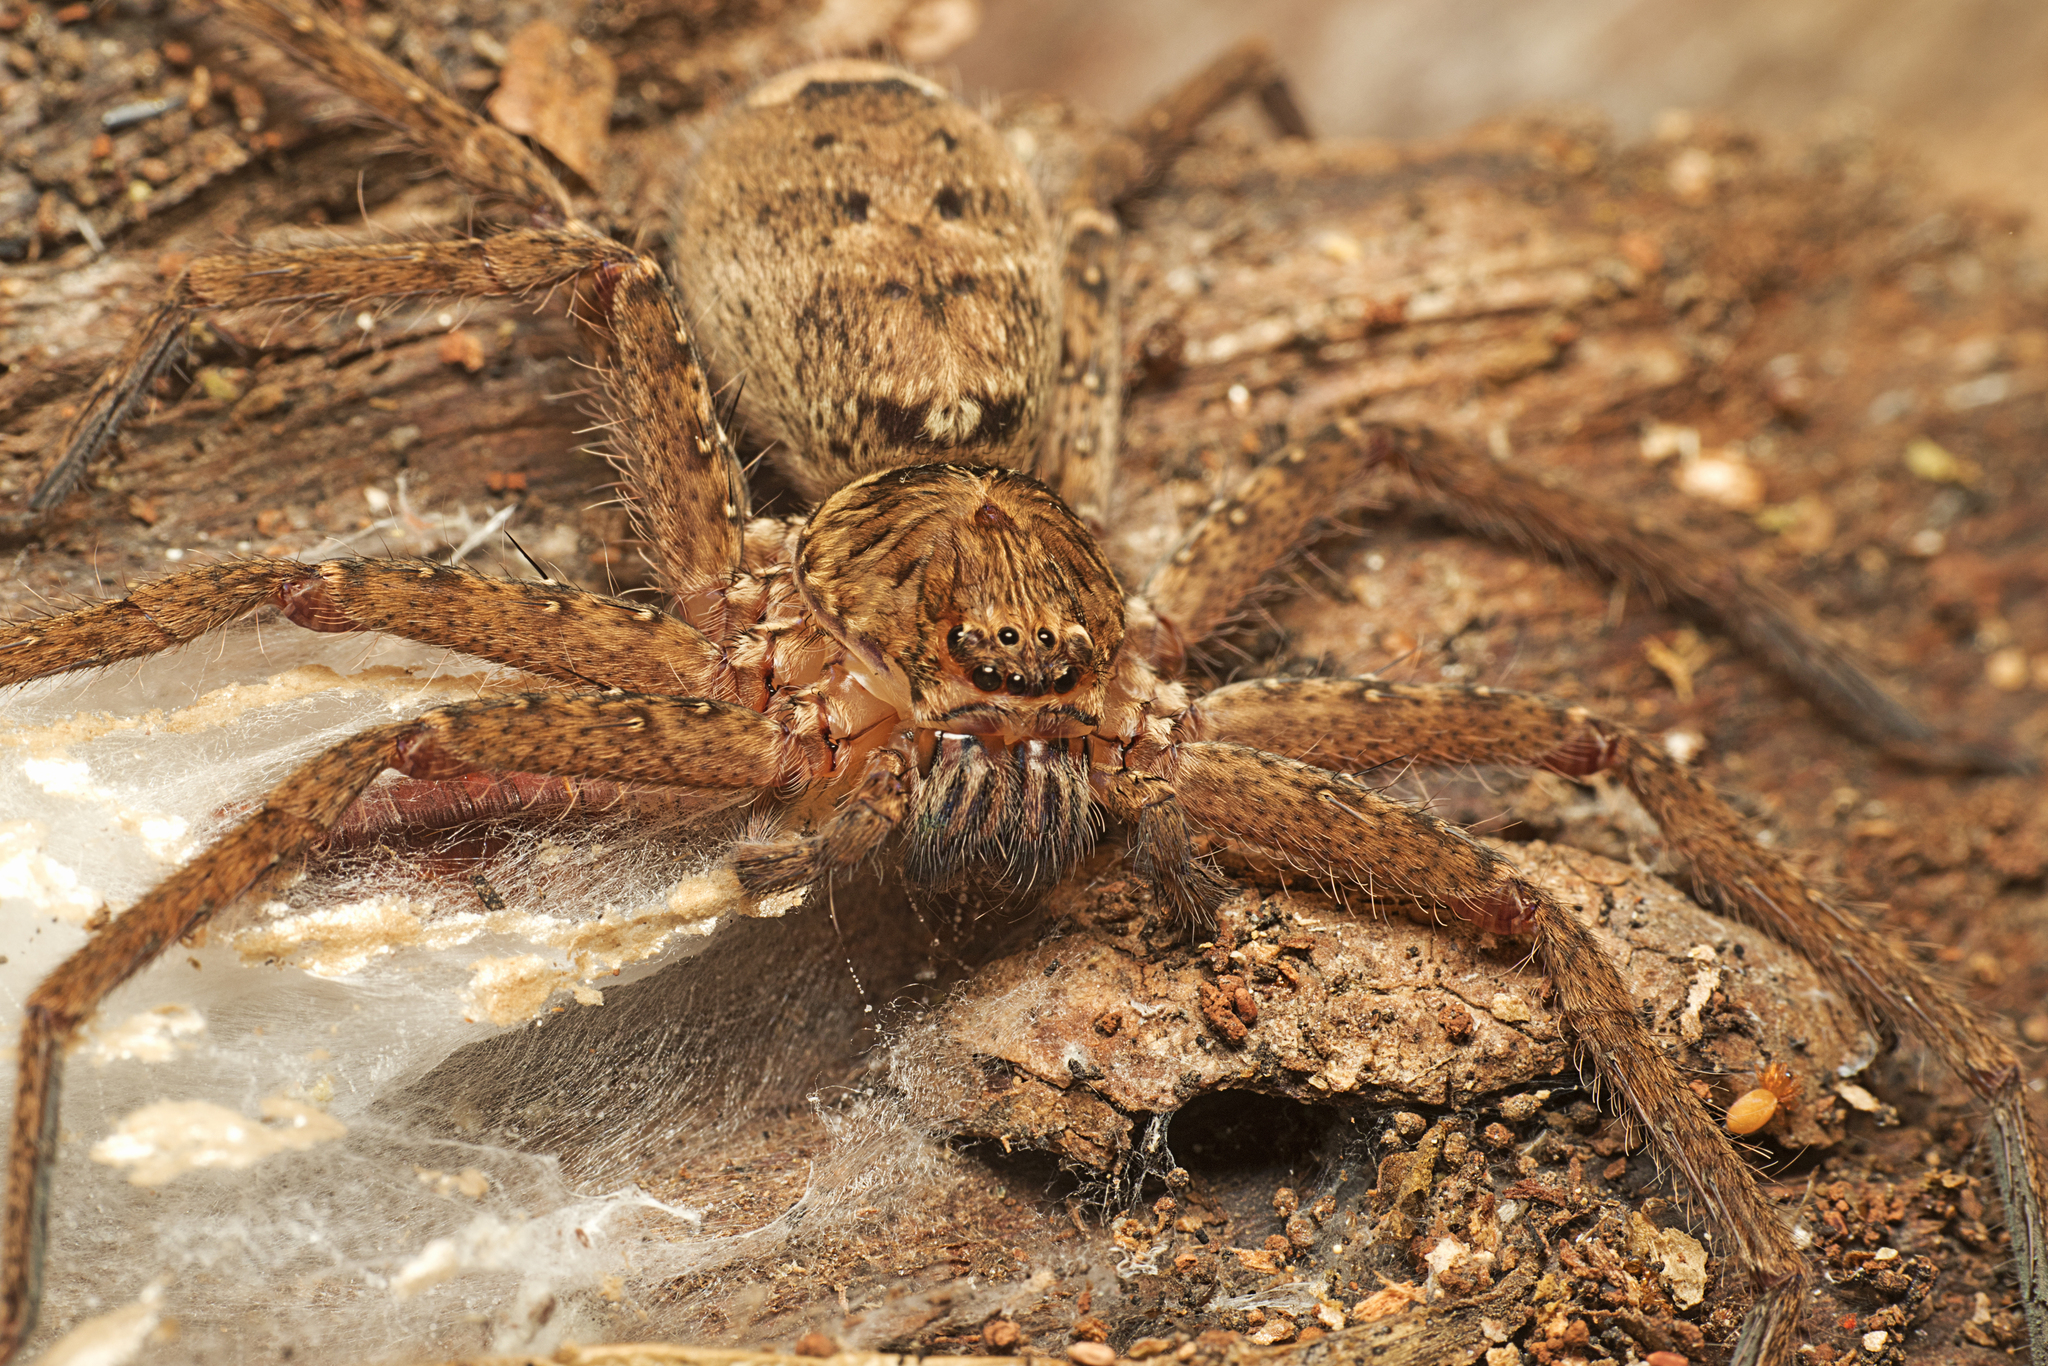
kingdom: Animalia
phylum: Arthropoda
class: Arachnida
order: Araneae
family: Sparassidae
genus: Heteropoda
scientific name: Heteropoda jugulans
